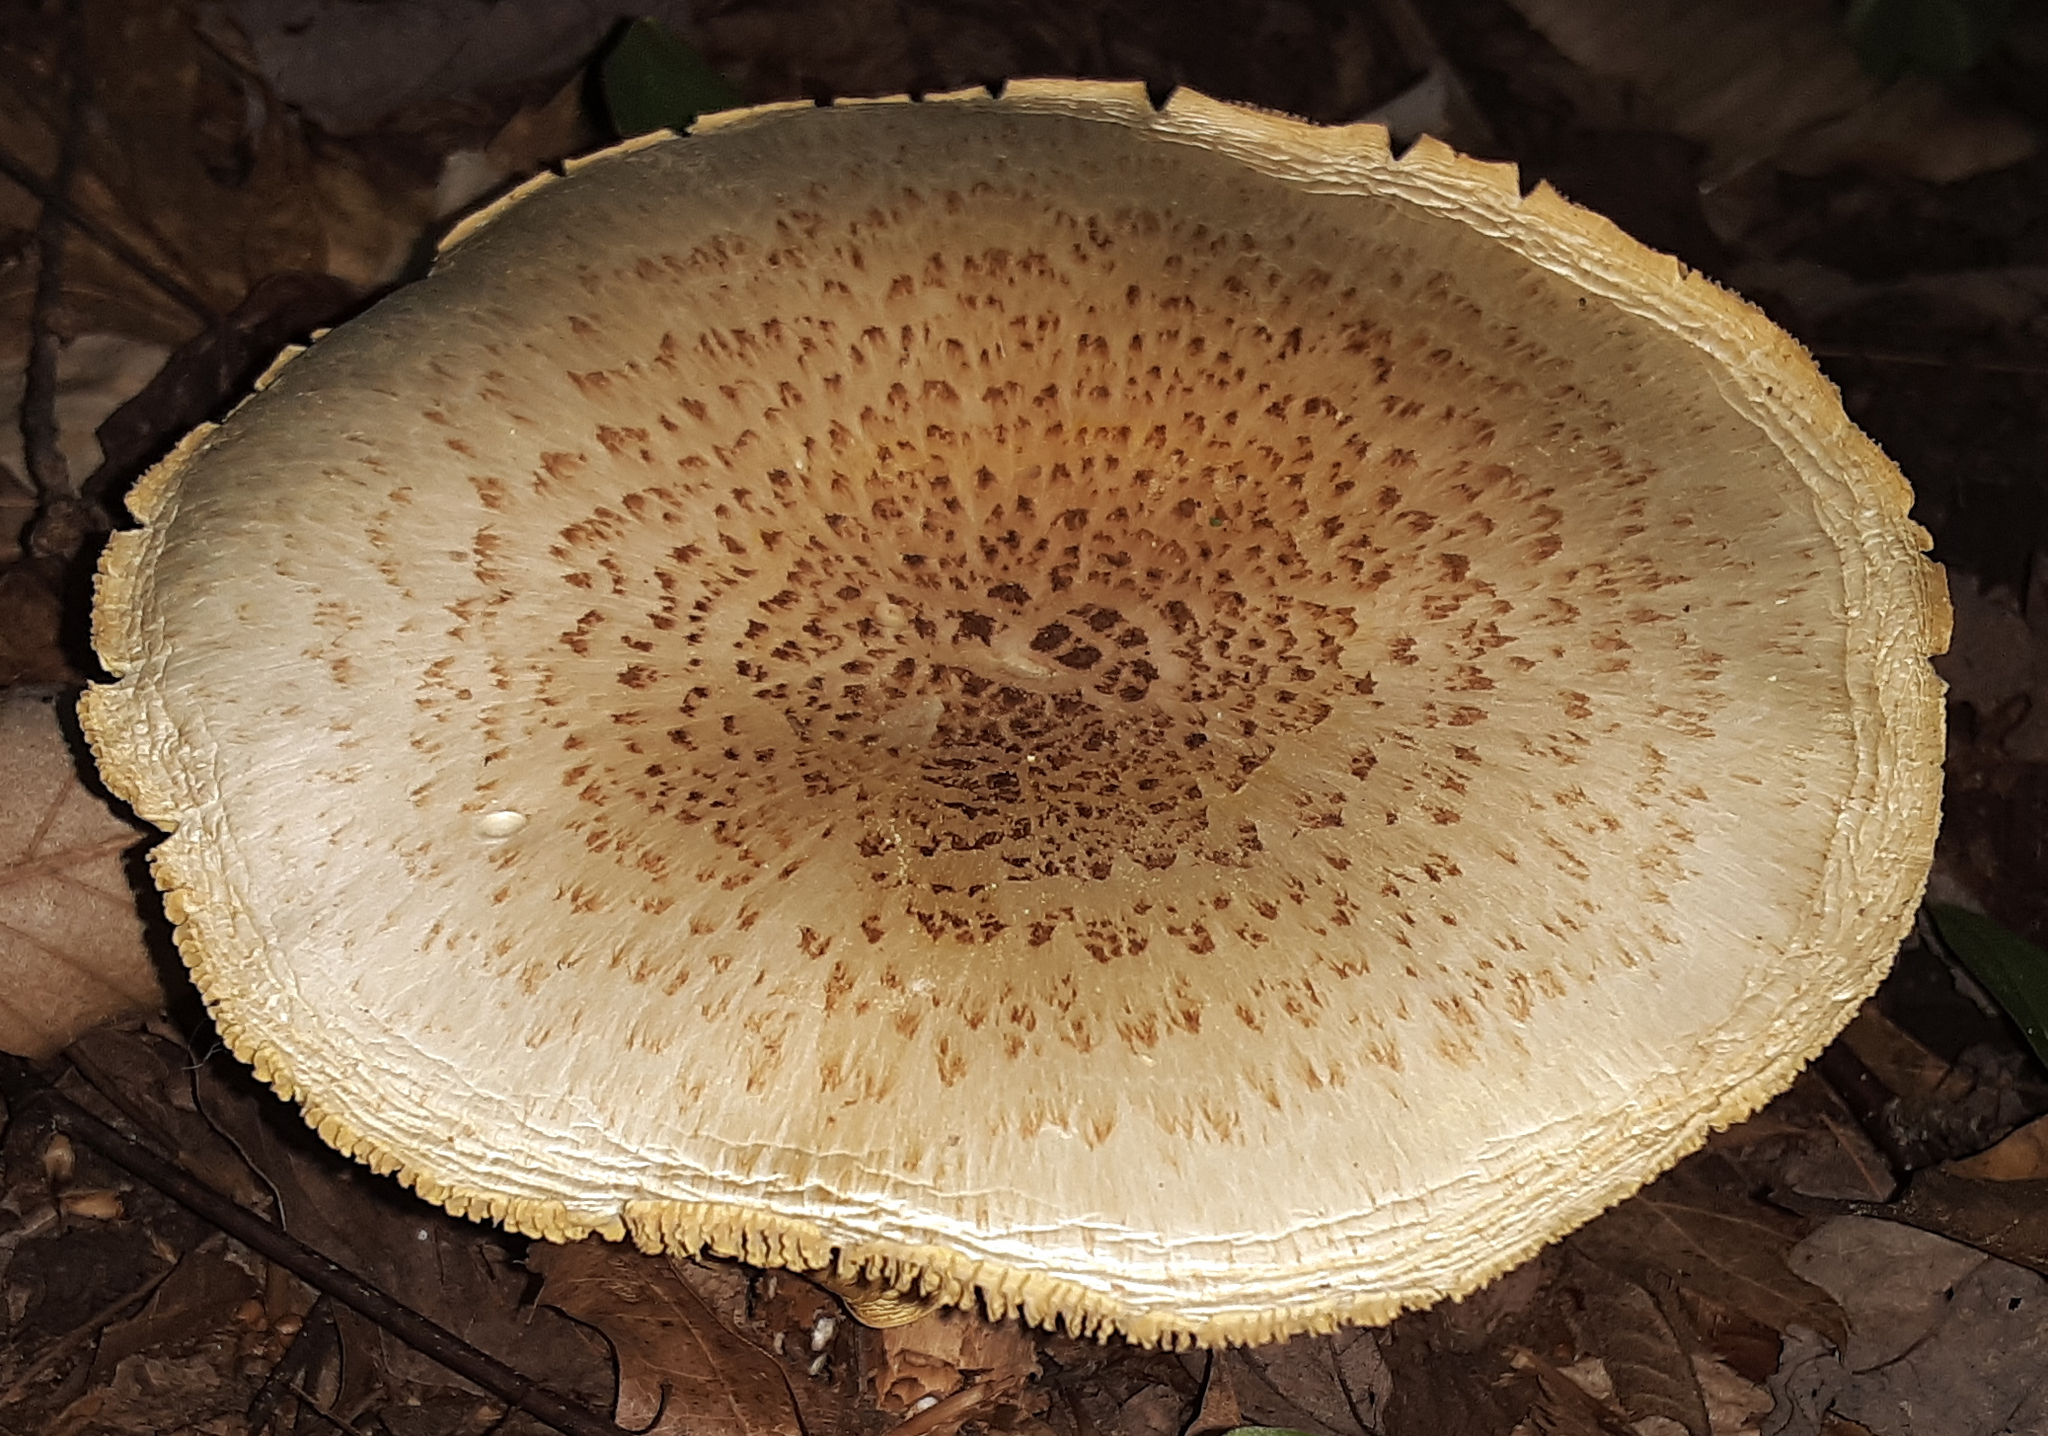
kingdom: Fungi
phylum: Basidiomycota
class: Agaricomycetes
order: Gloeophyllales
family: Gloeophyllaceae
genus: Neolentinus
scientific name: Neolentinus lepideus
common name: Scaly sawgill
